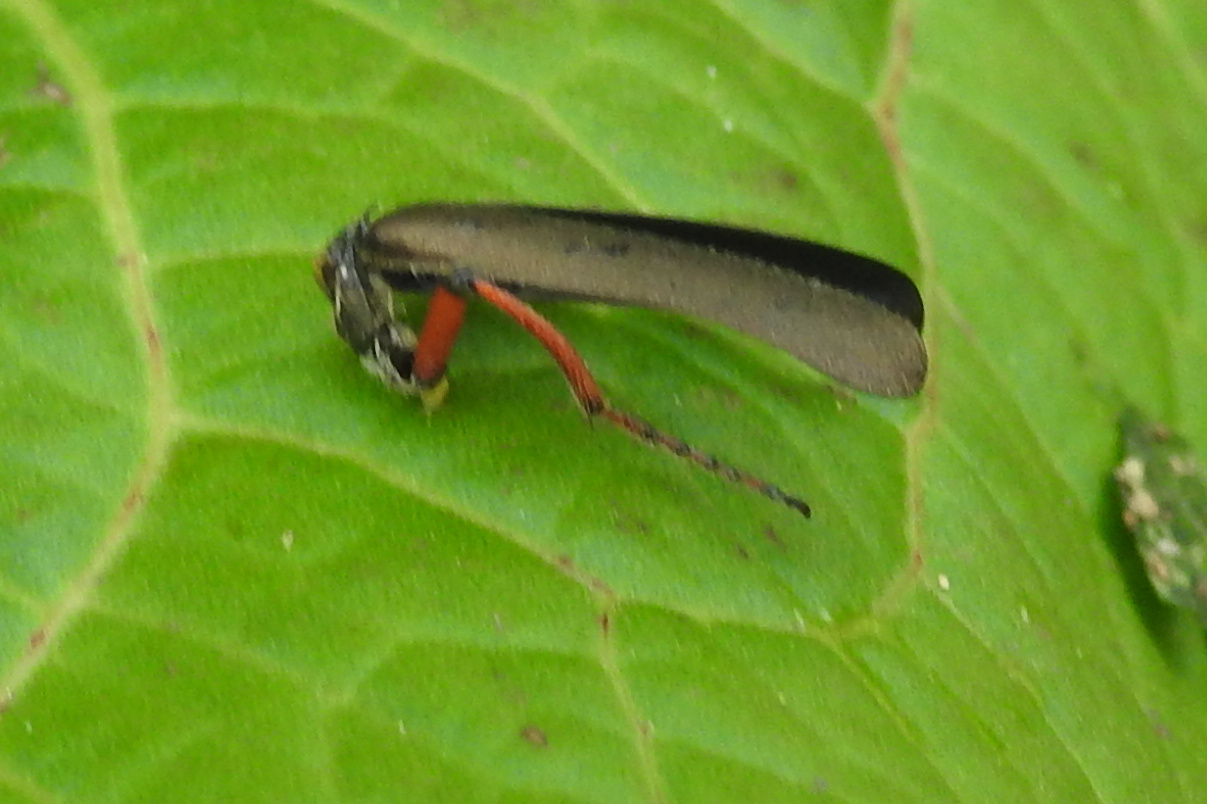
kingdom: Animalia
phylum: Arthropoda
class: Insecta
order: Coleoptera
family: Meloidae
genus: Lytta
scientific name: Lytta aenea
